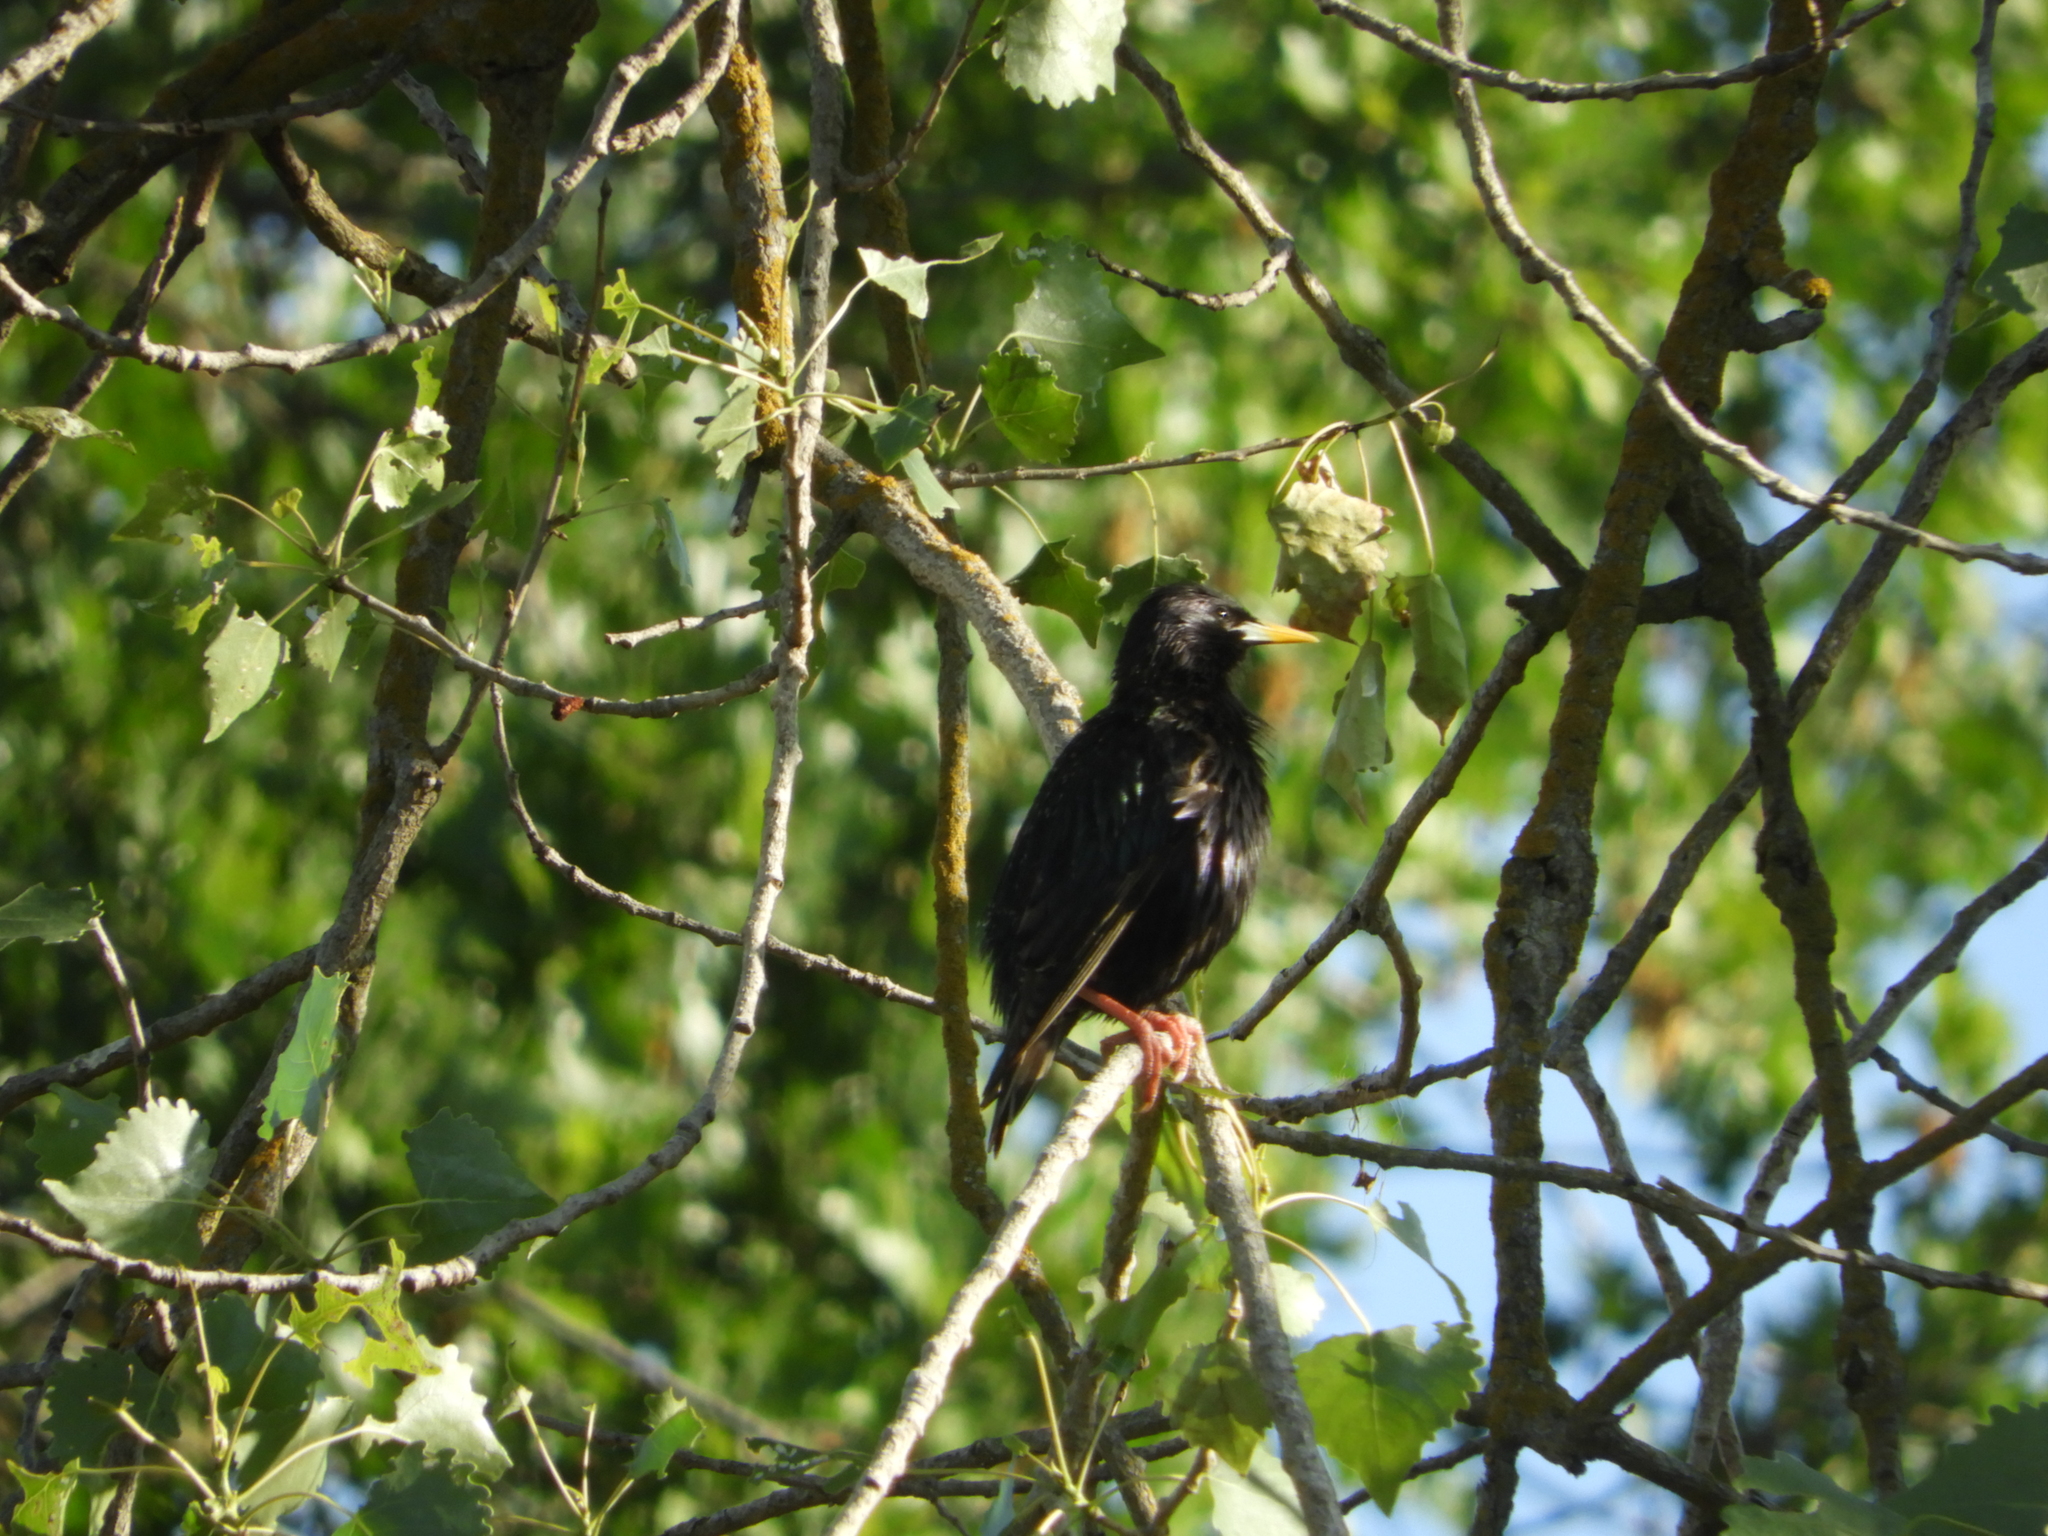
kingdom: Animalia
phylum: Chordata
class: Aves
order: Passeriformes
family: Sturnidae
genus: Sturnus
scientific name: Sturnus vulgaris
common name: Common starling
